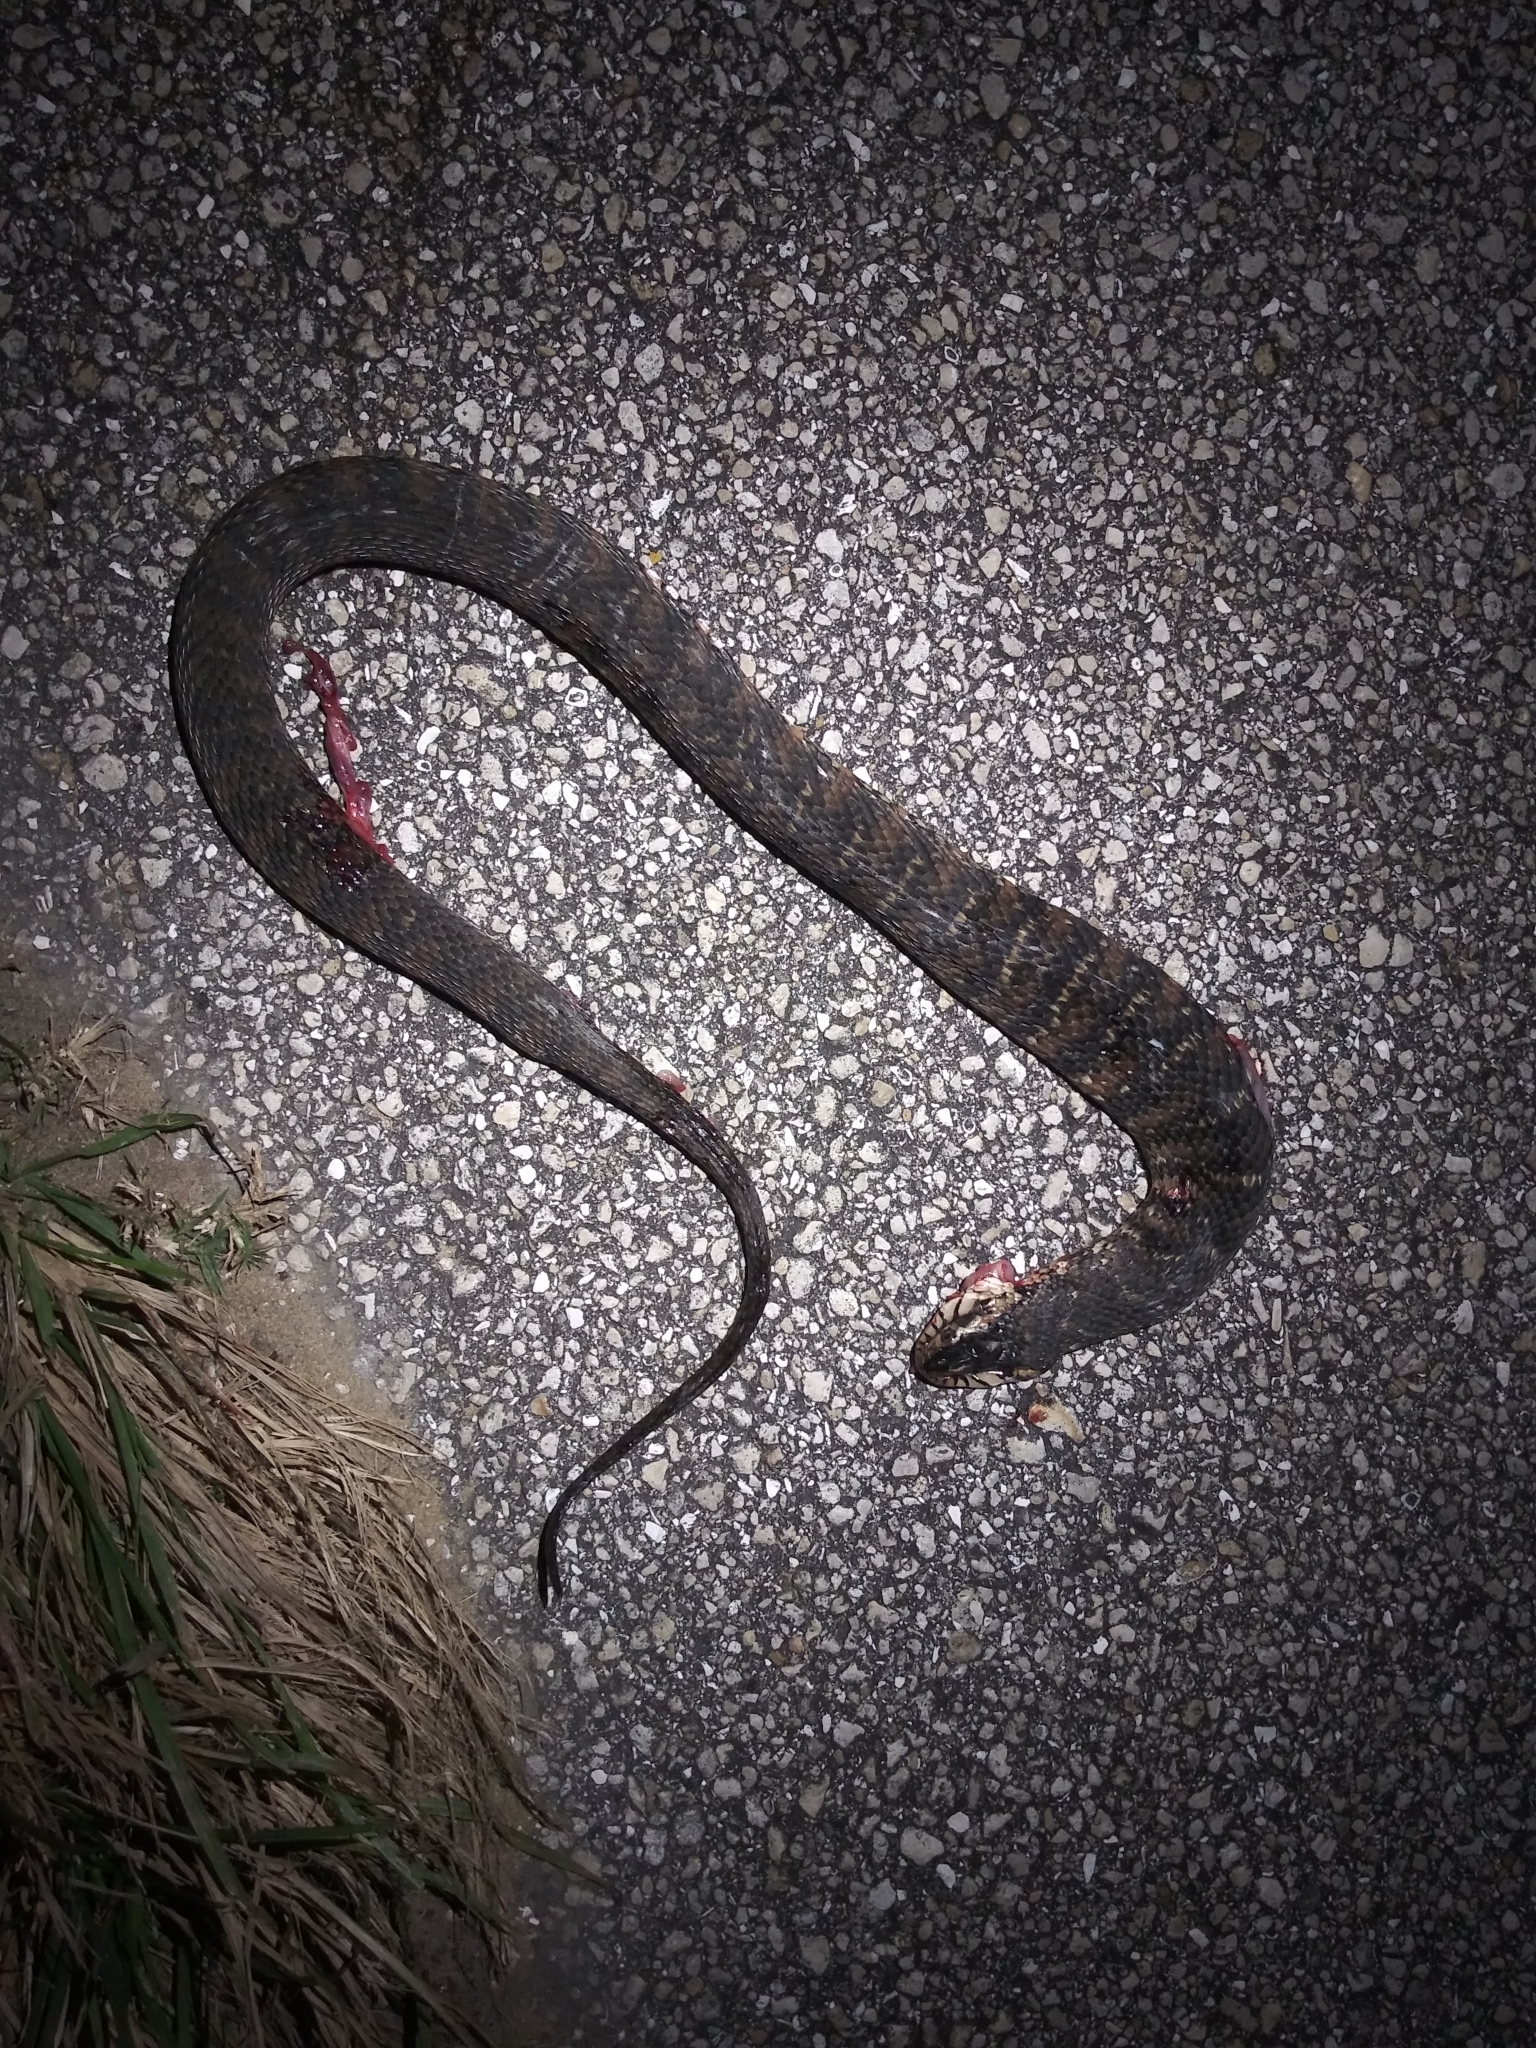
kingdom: Animalia
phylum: Chordata
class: Squamata
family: Colubridae
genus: Nerodia
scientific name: Nerodia fasciata
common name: Southern water snake
